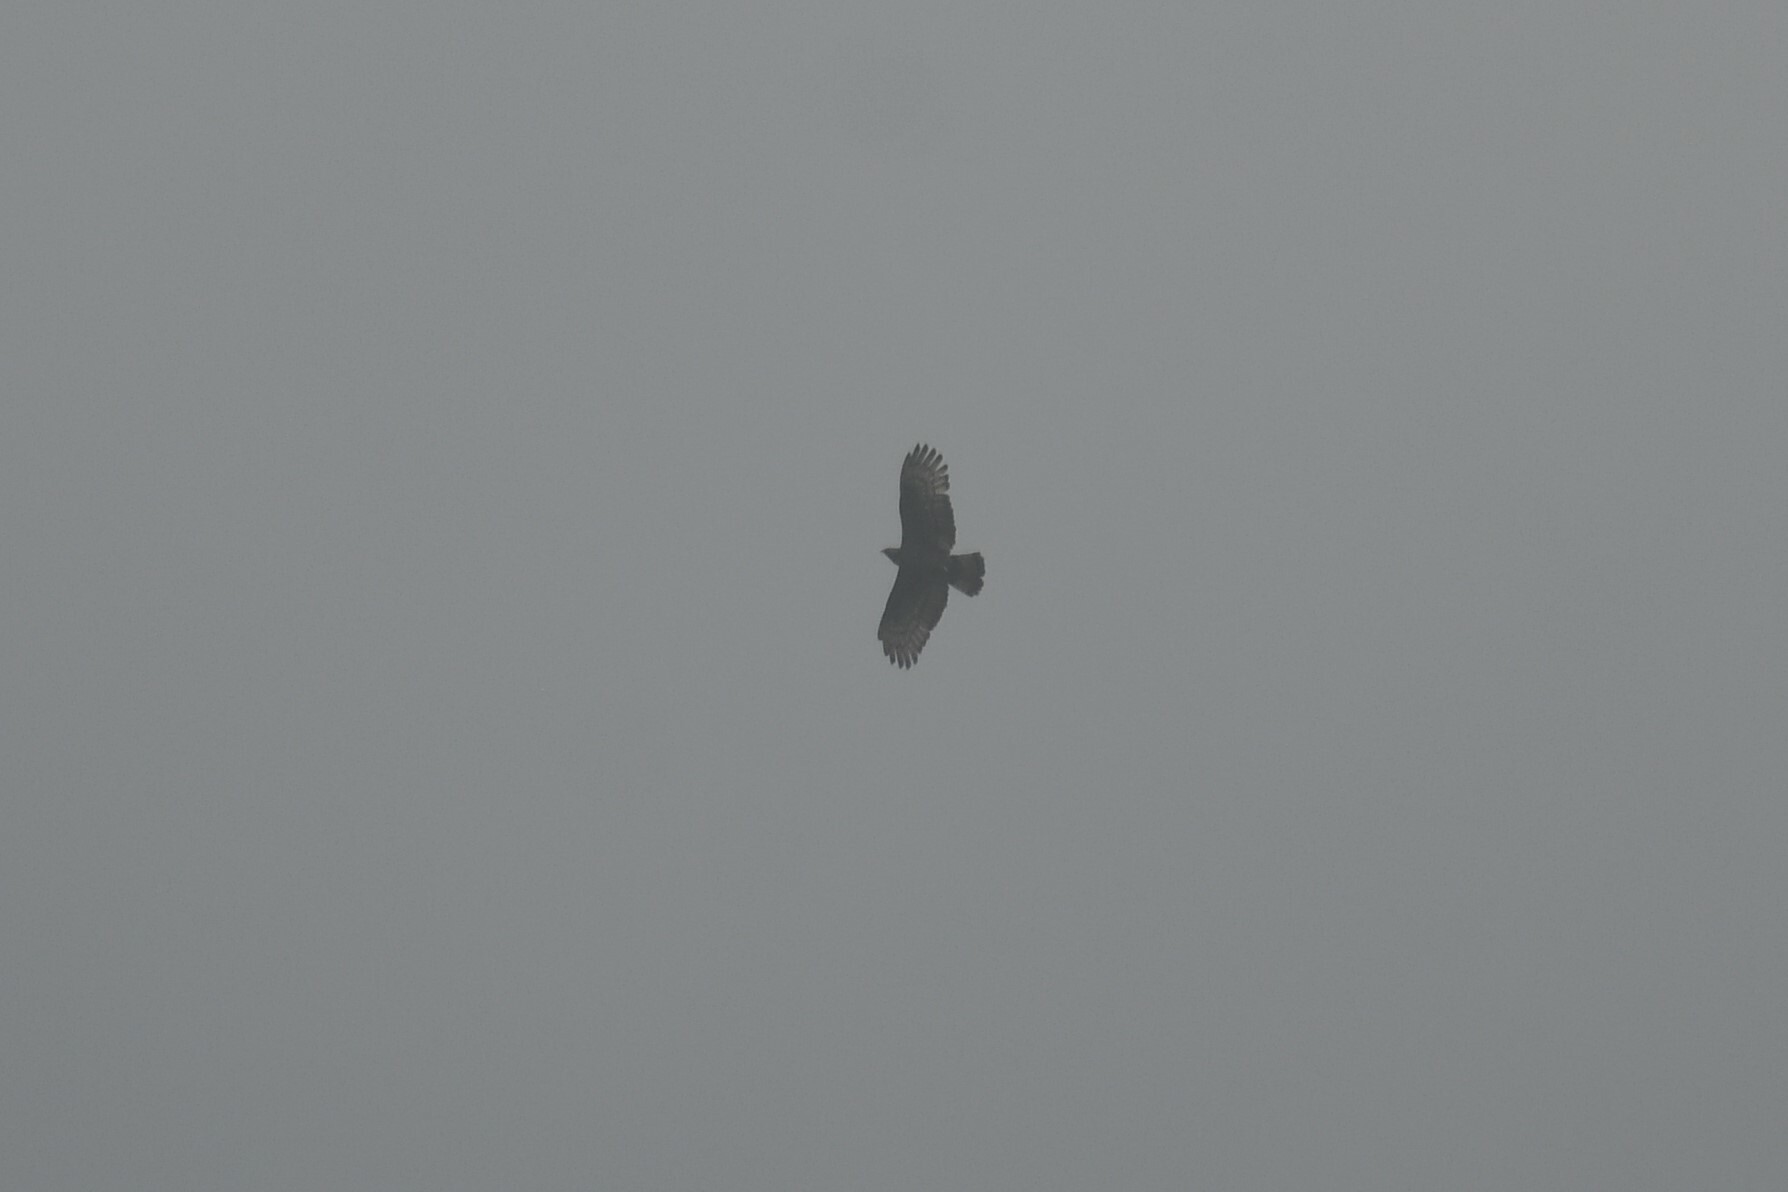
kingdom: Animalia
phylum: Chordata
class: Aves
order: Accipitriformes
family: Accipitridae
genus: Pernis
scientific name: Pernis ptilorhynchus
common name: Crested honey buzzard
